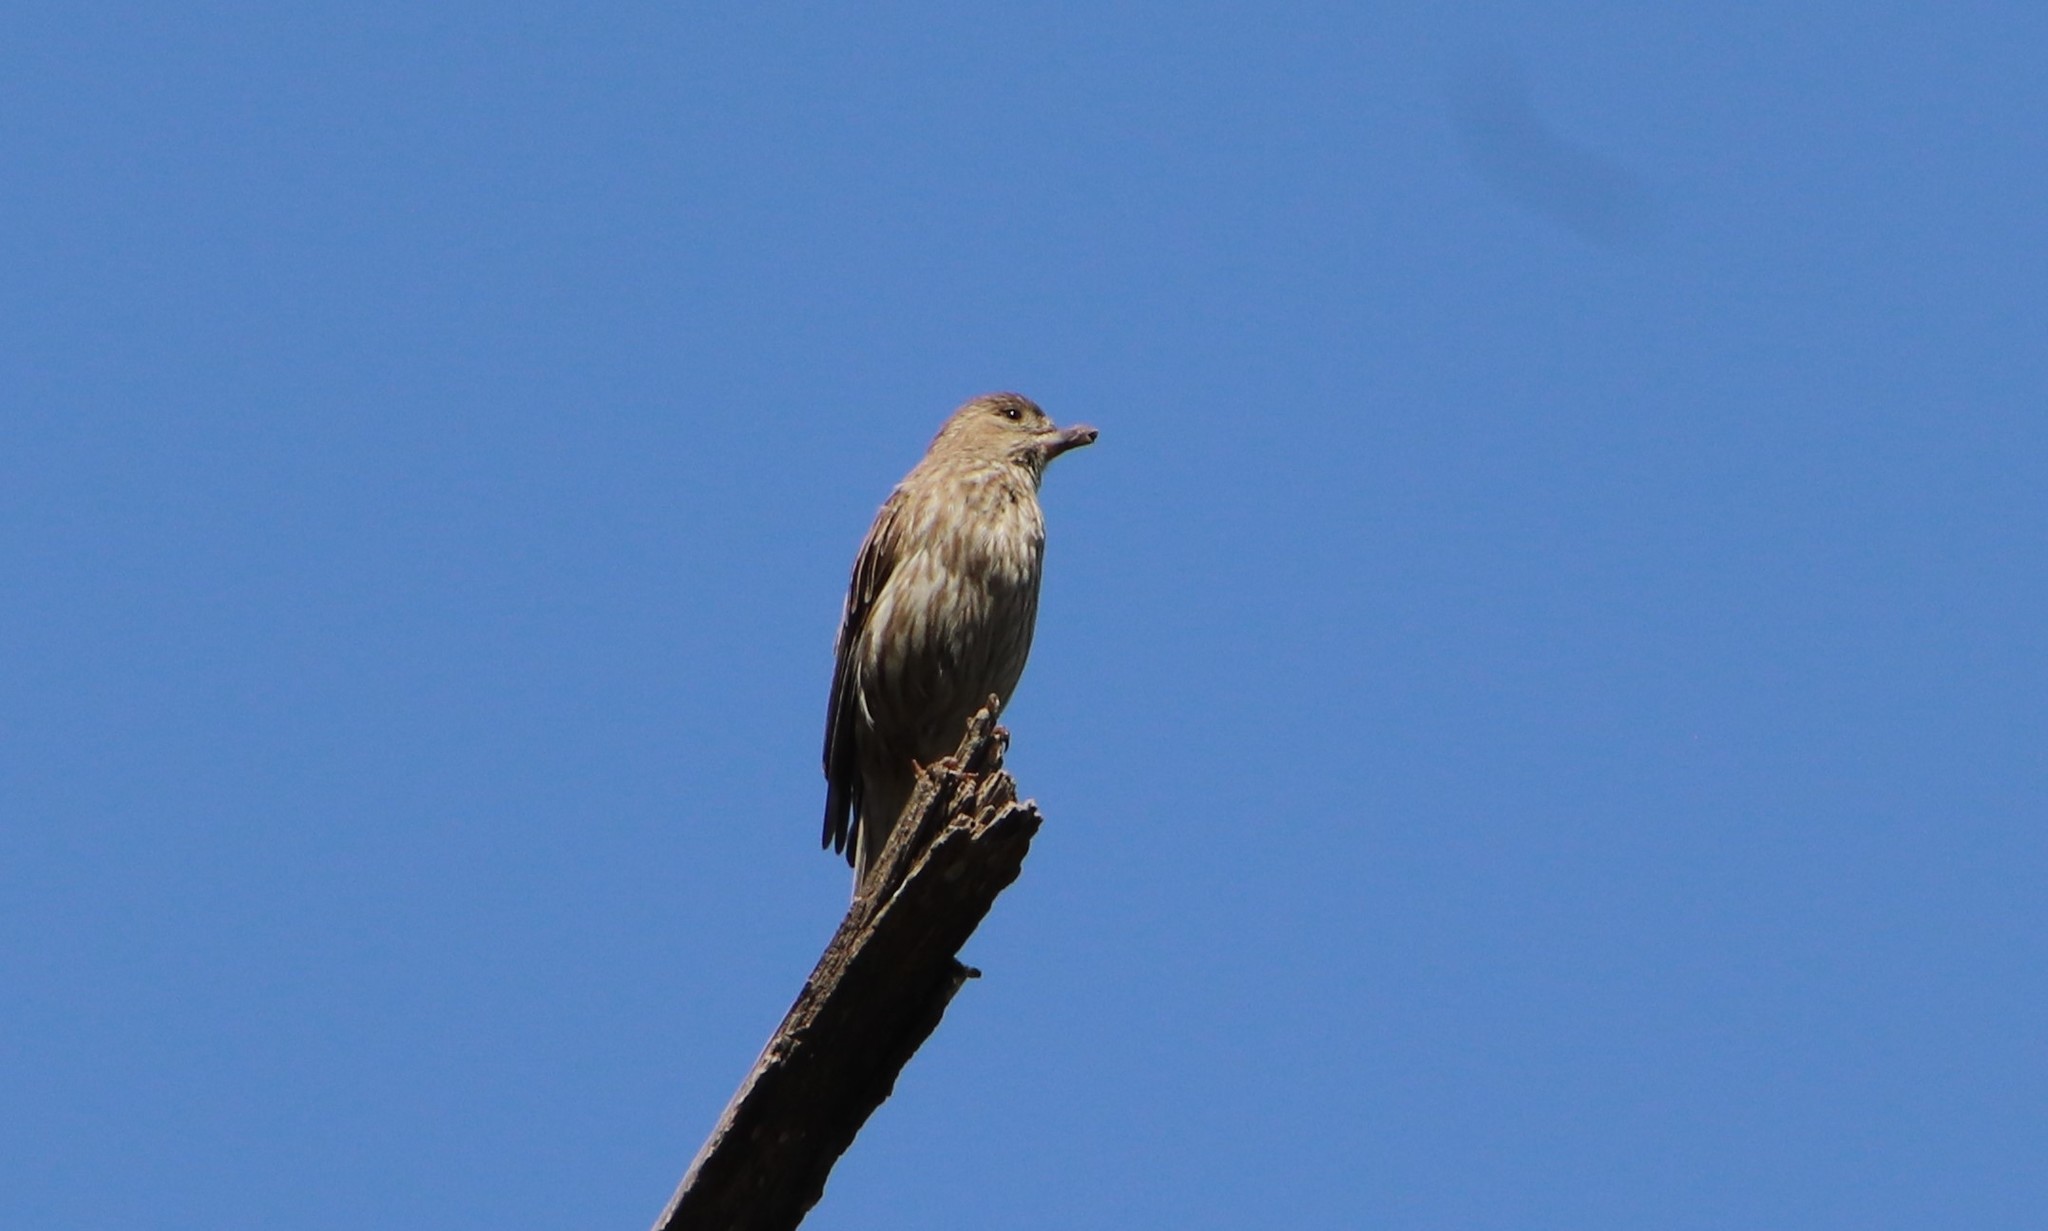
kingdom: Animalia
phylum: Chordata
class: Aves
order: Passeriformes
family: Fringillidae
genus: Haemorhous
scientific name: Haemorhous mexicanus
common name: House finch
